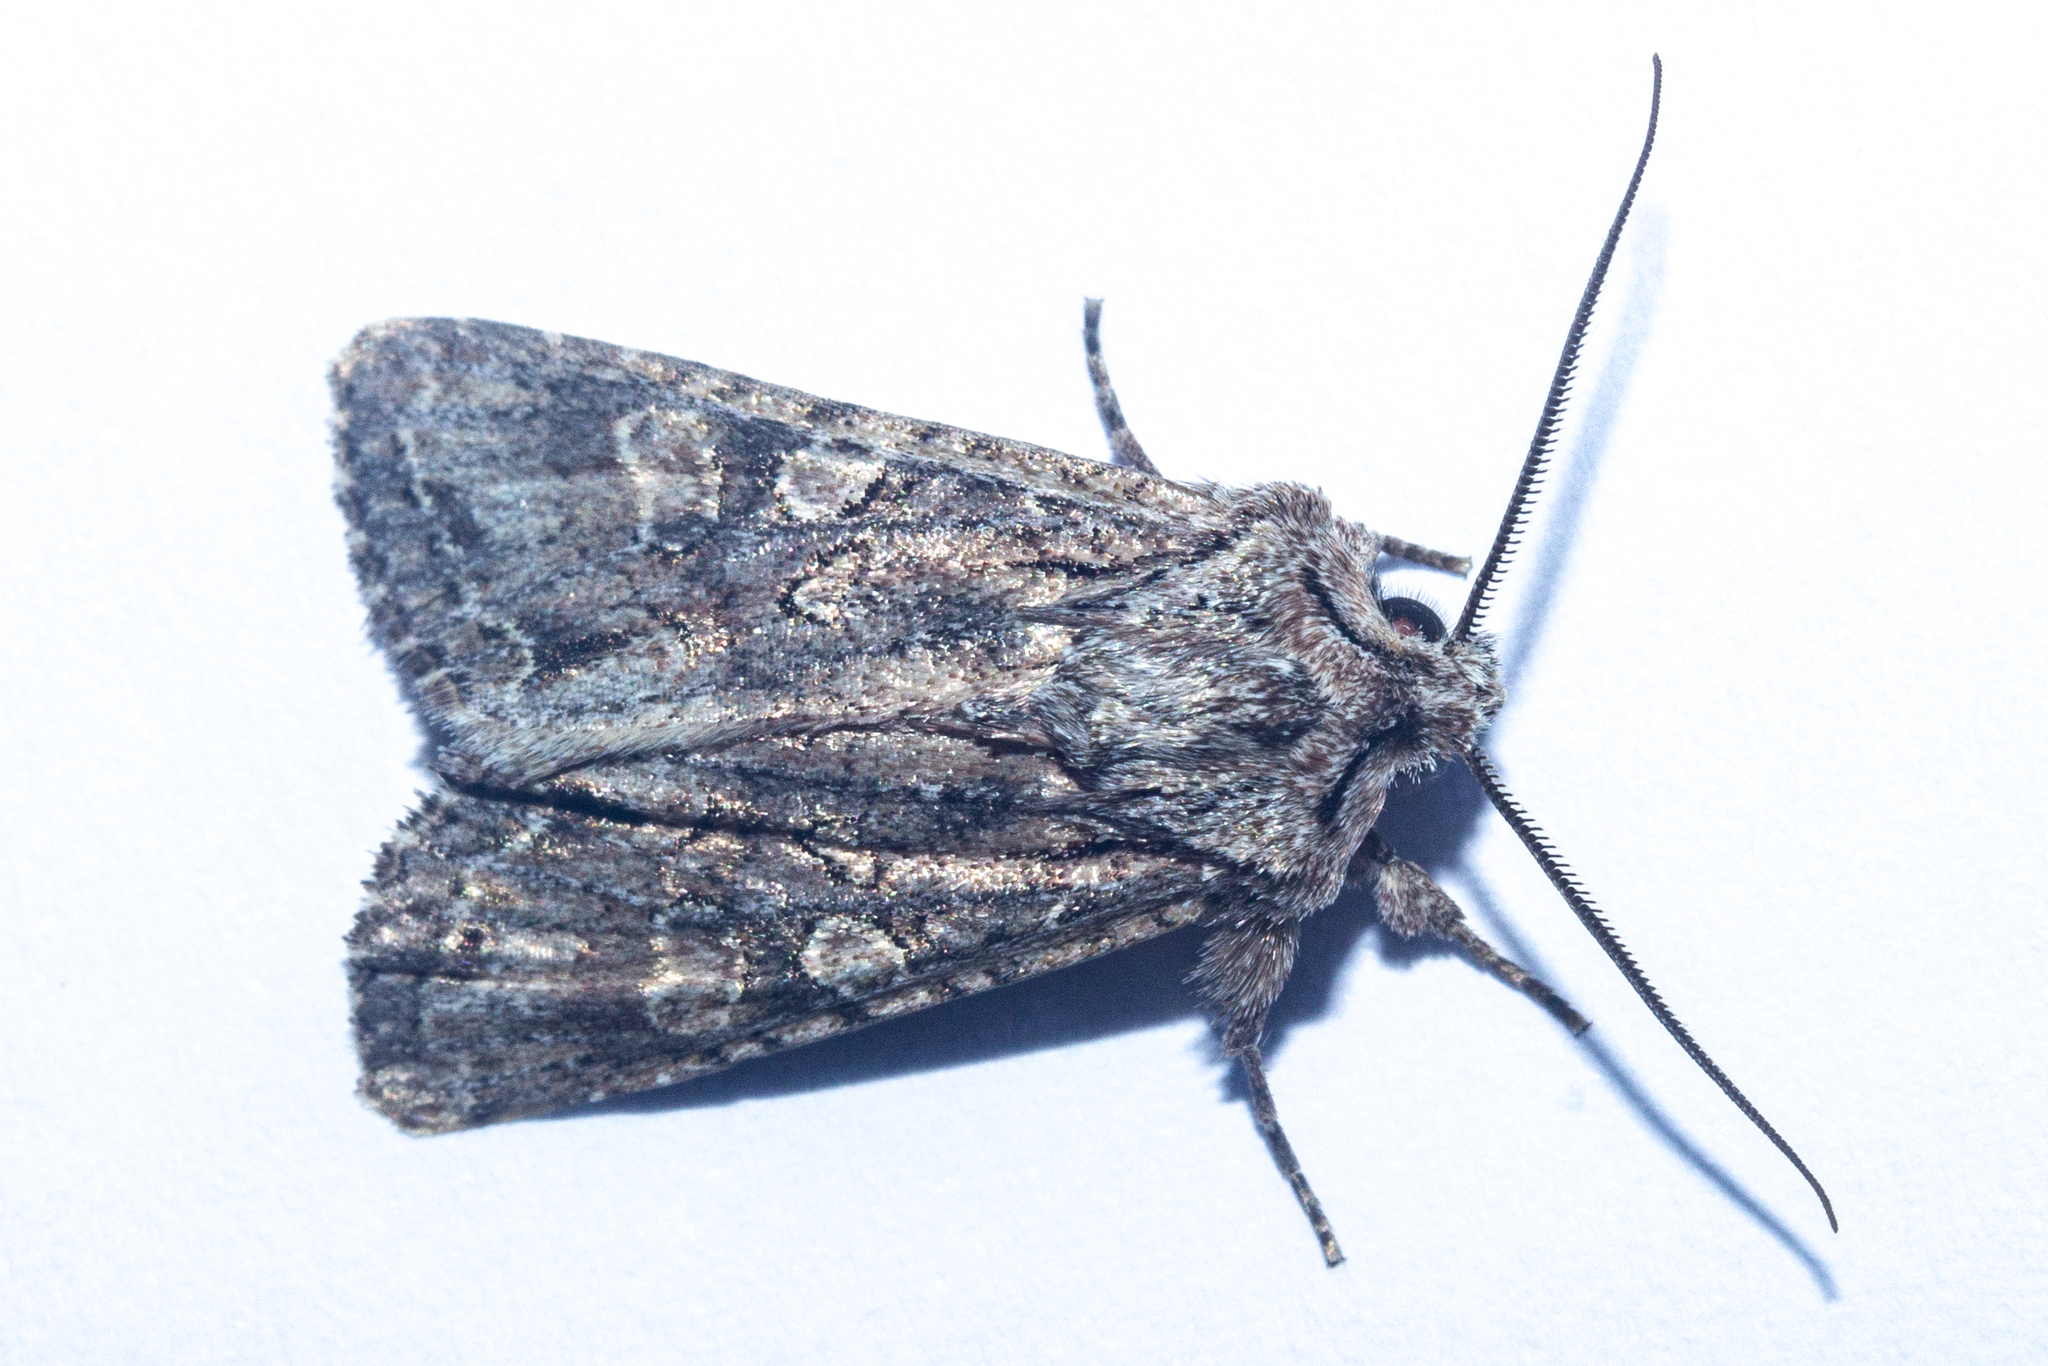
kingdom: Animalia
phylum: Arthropoda
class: Insecta
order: Lepidoptera
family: Noctuidae
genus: Ichneutica
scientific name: Ichneutica mutans
